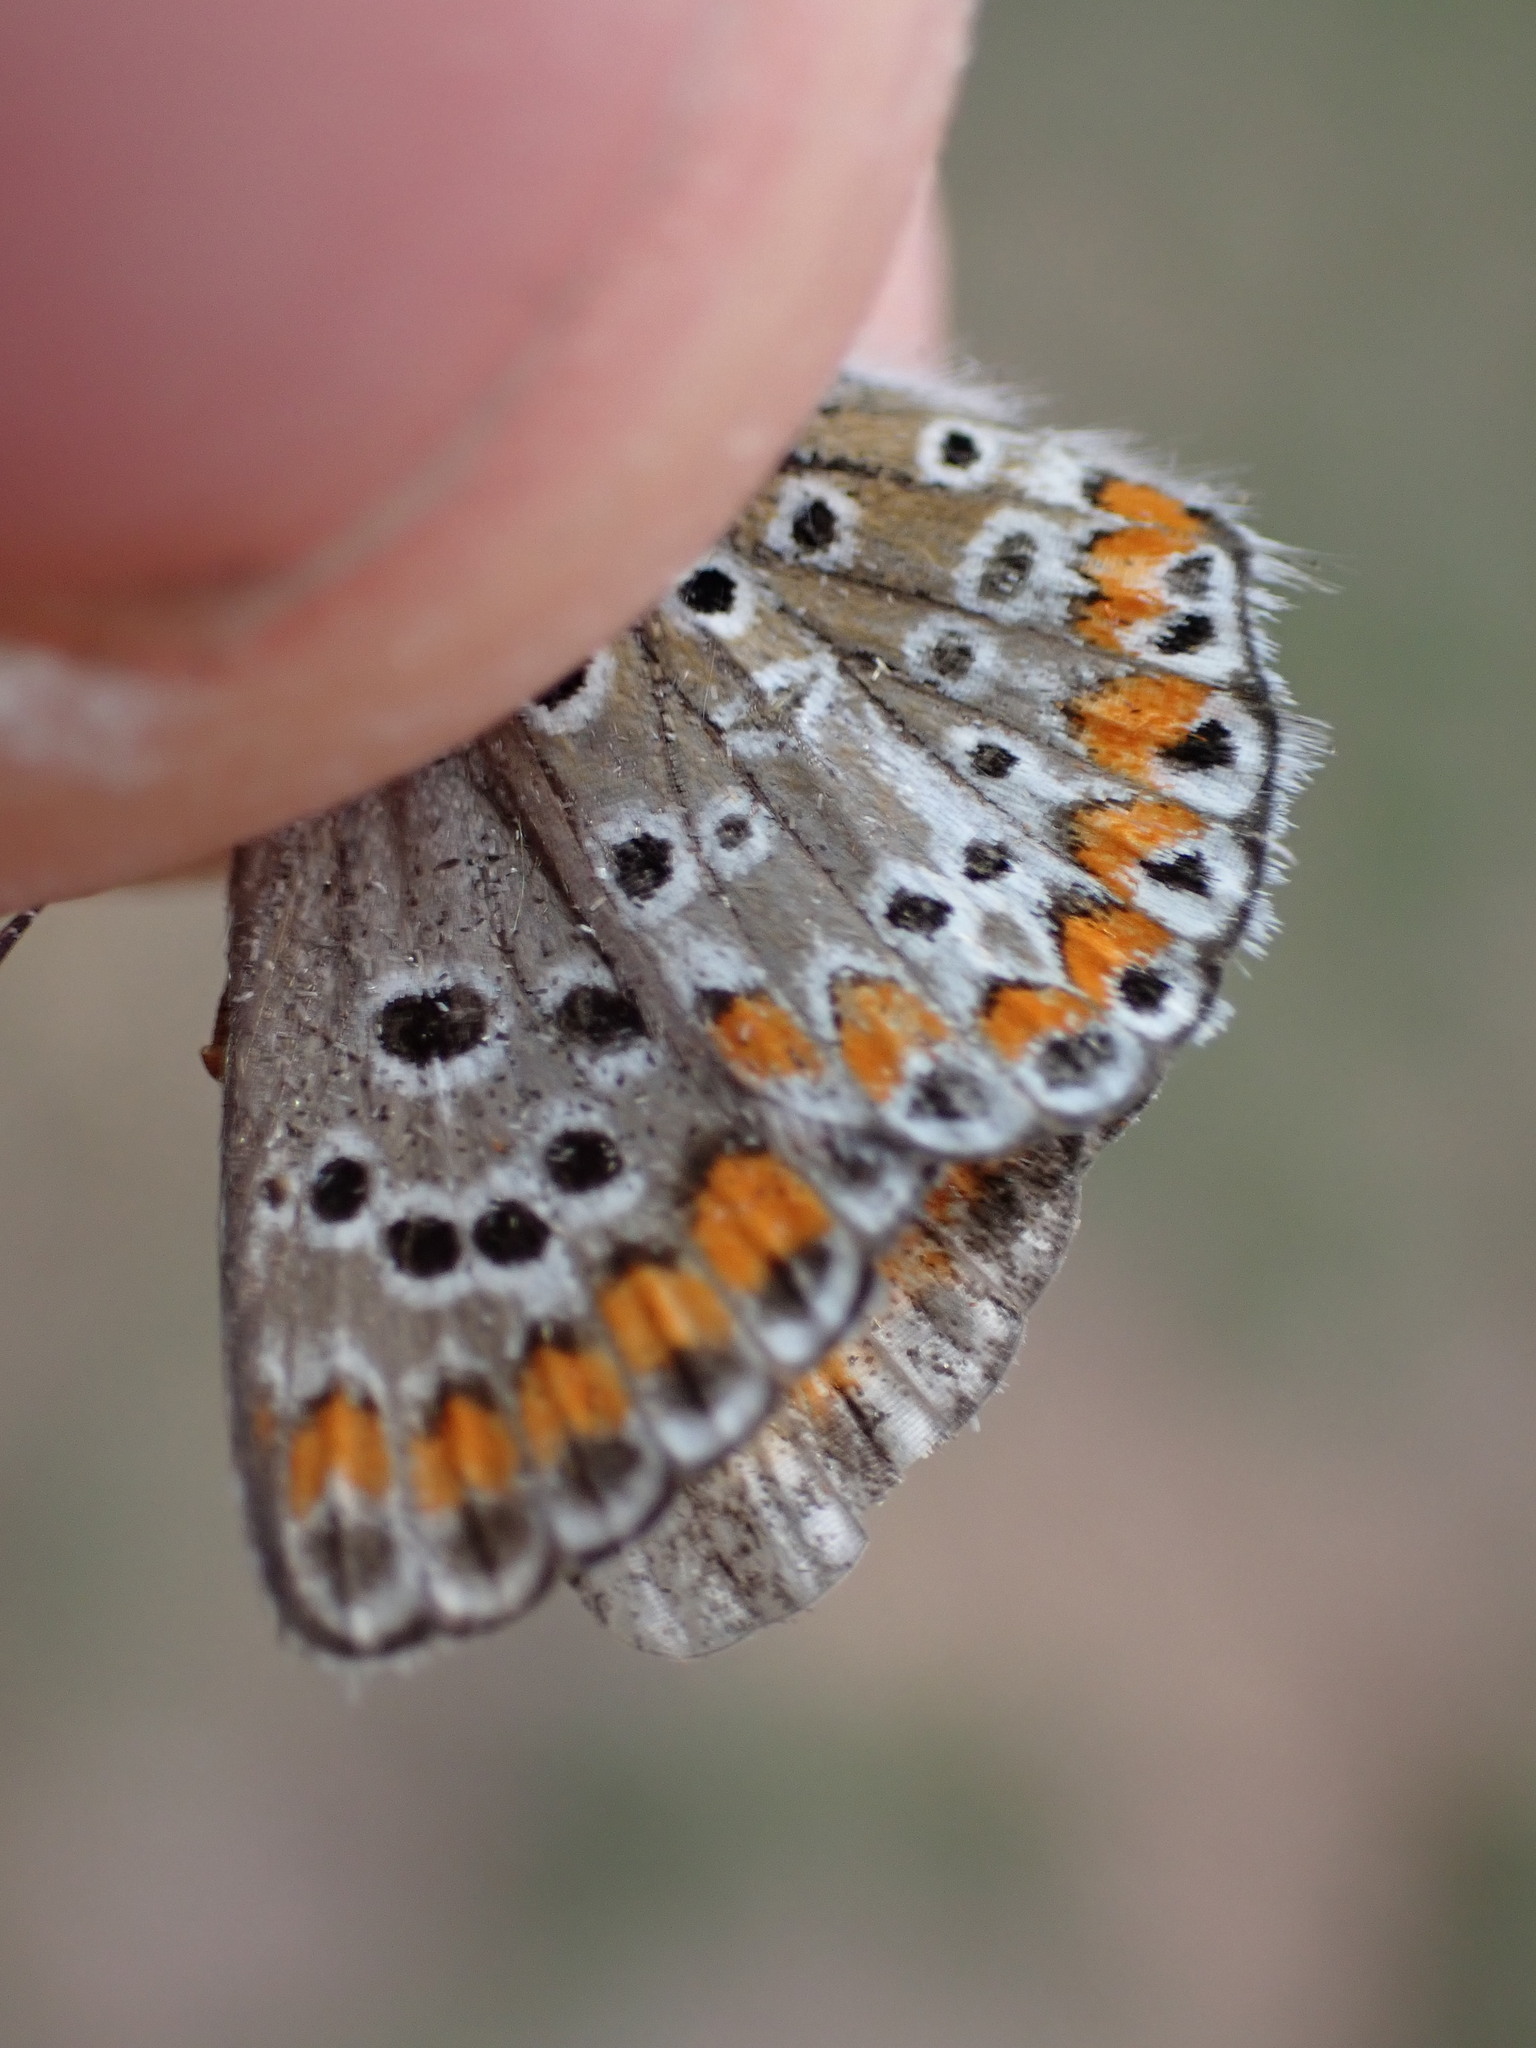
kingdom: Animalia
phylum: Arthropoda
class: Insecta
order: Lepidoptera
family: Lycaenidae
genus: Aricia
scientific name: Aricia agestis
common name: Brown argus
